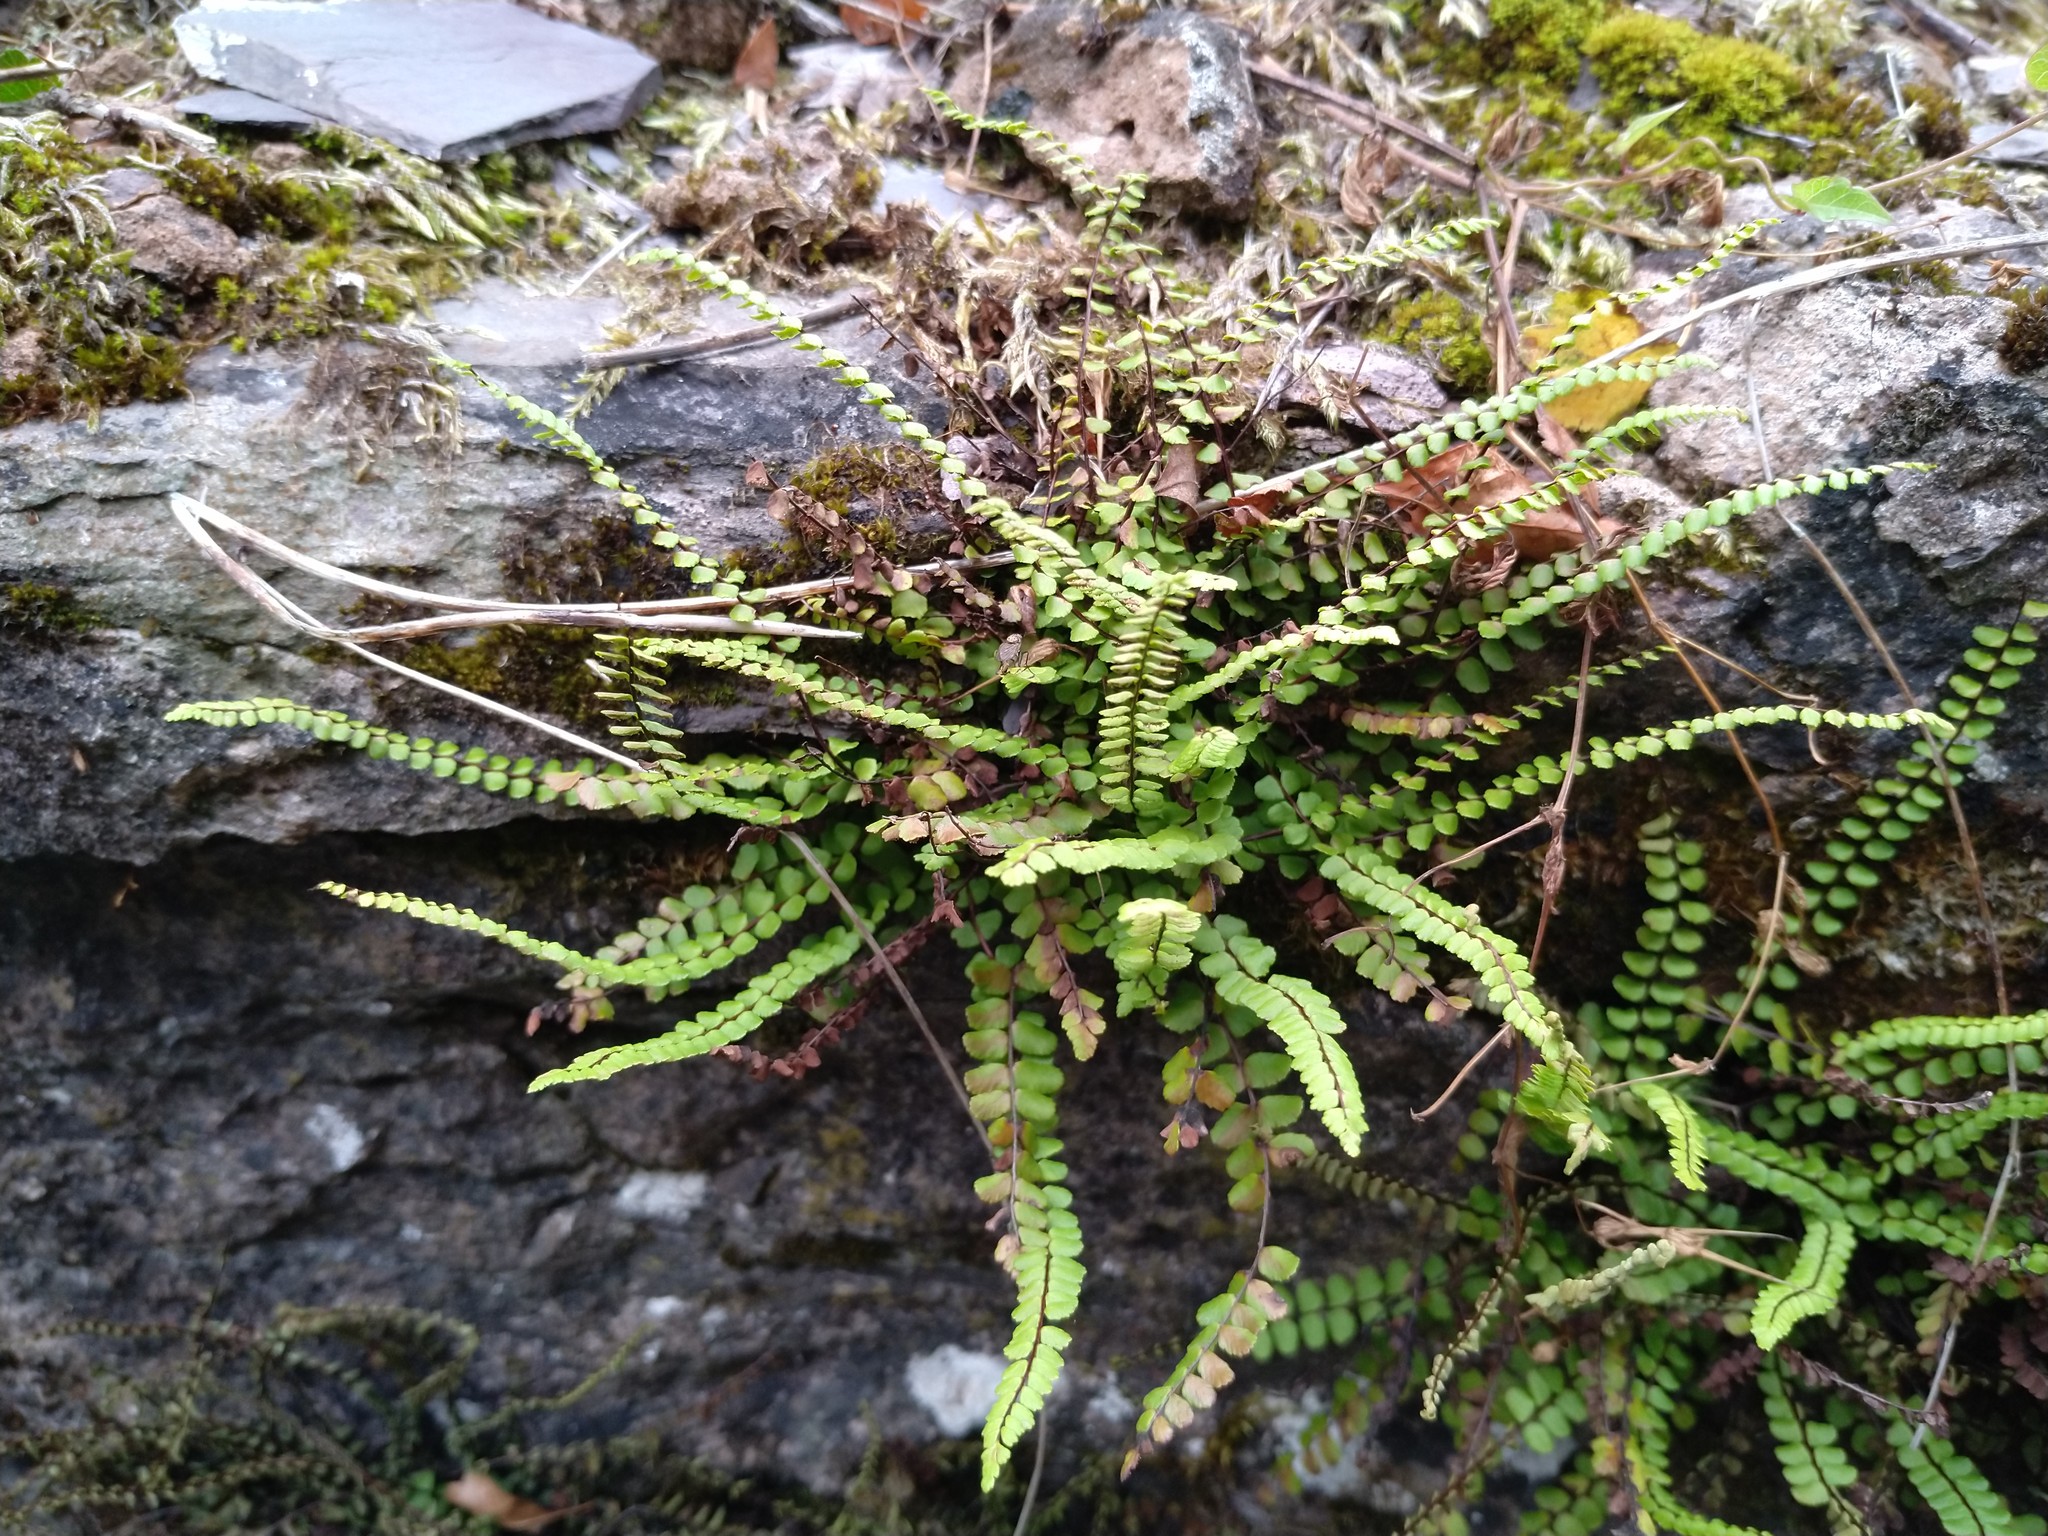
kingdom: Plantae
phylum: Tracheophyta
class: Polypodiopsida
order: Polypodiales
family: Aspleniaceae
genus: Asplenium
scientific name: Asplenium trichomanes
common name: Maidenhair spleenwort
